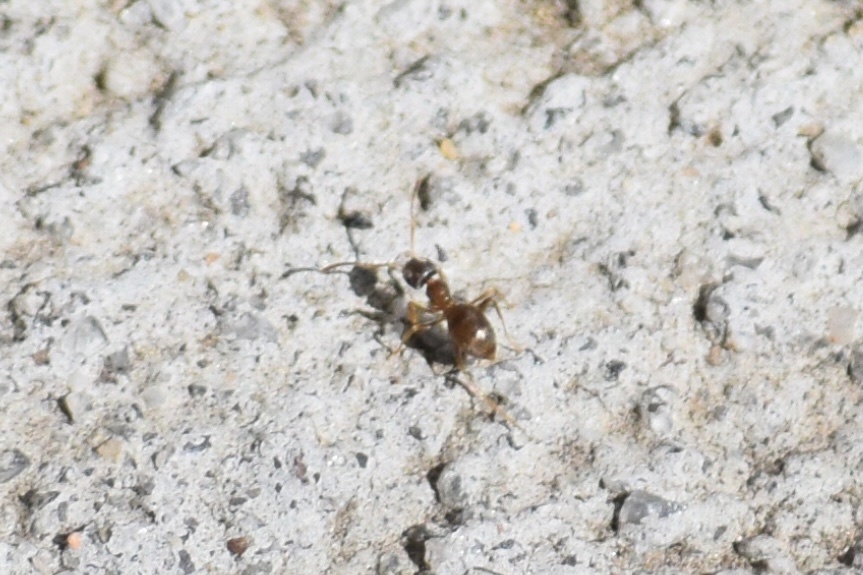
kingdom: Animalia
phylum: Arthropoda
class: Insecta
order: Hymenoptera
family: Formicidae
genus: Lasius
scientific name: Lasius neoniger
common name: Turfgrass ant
